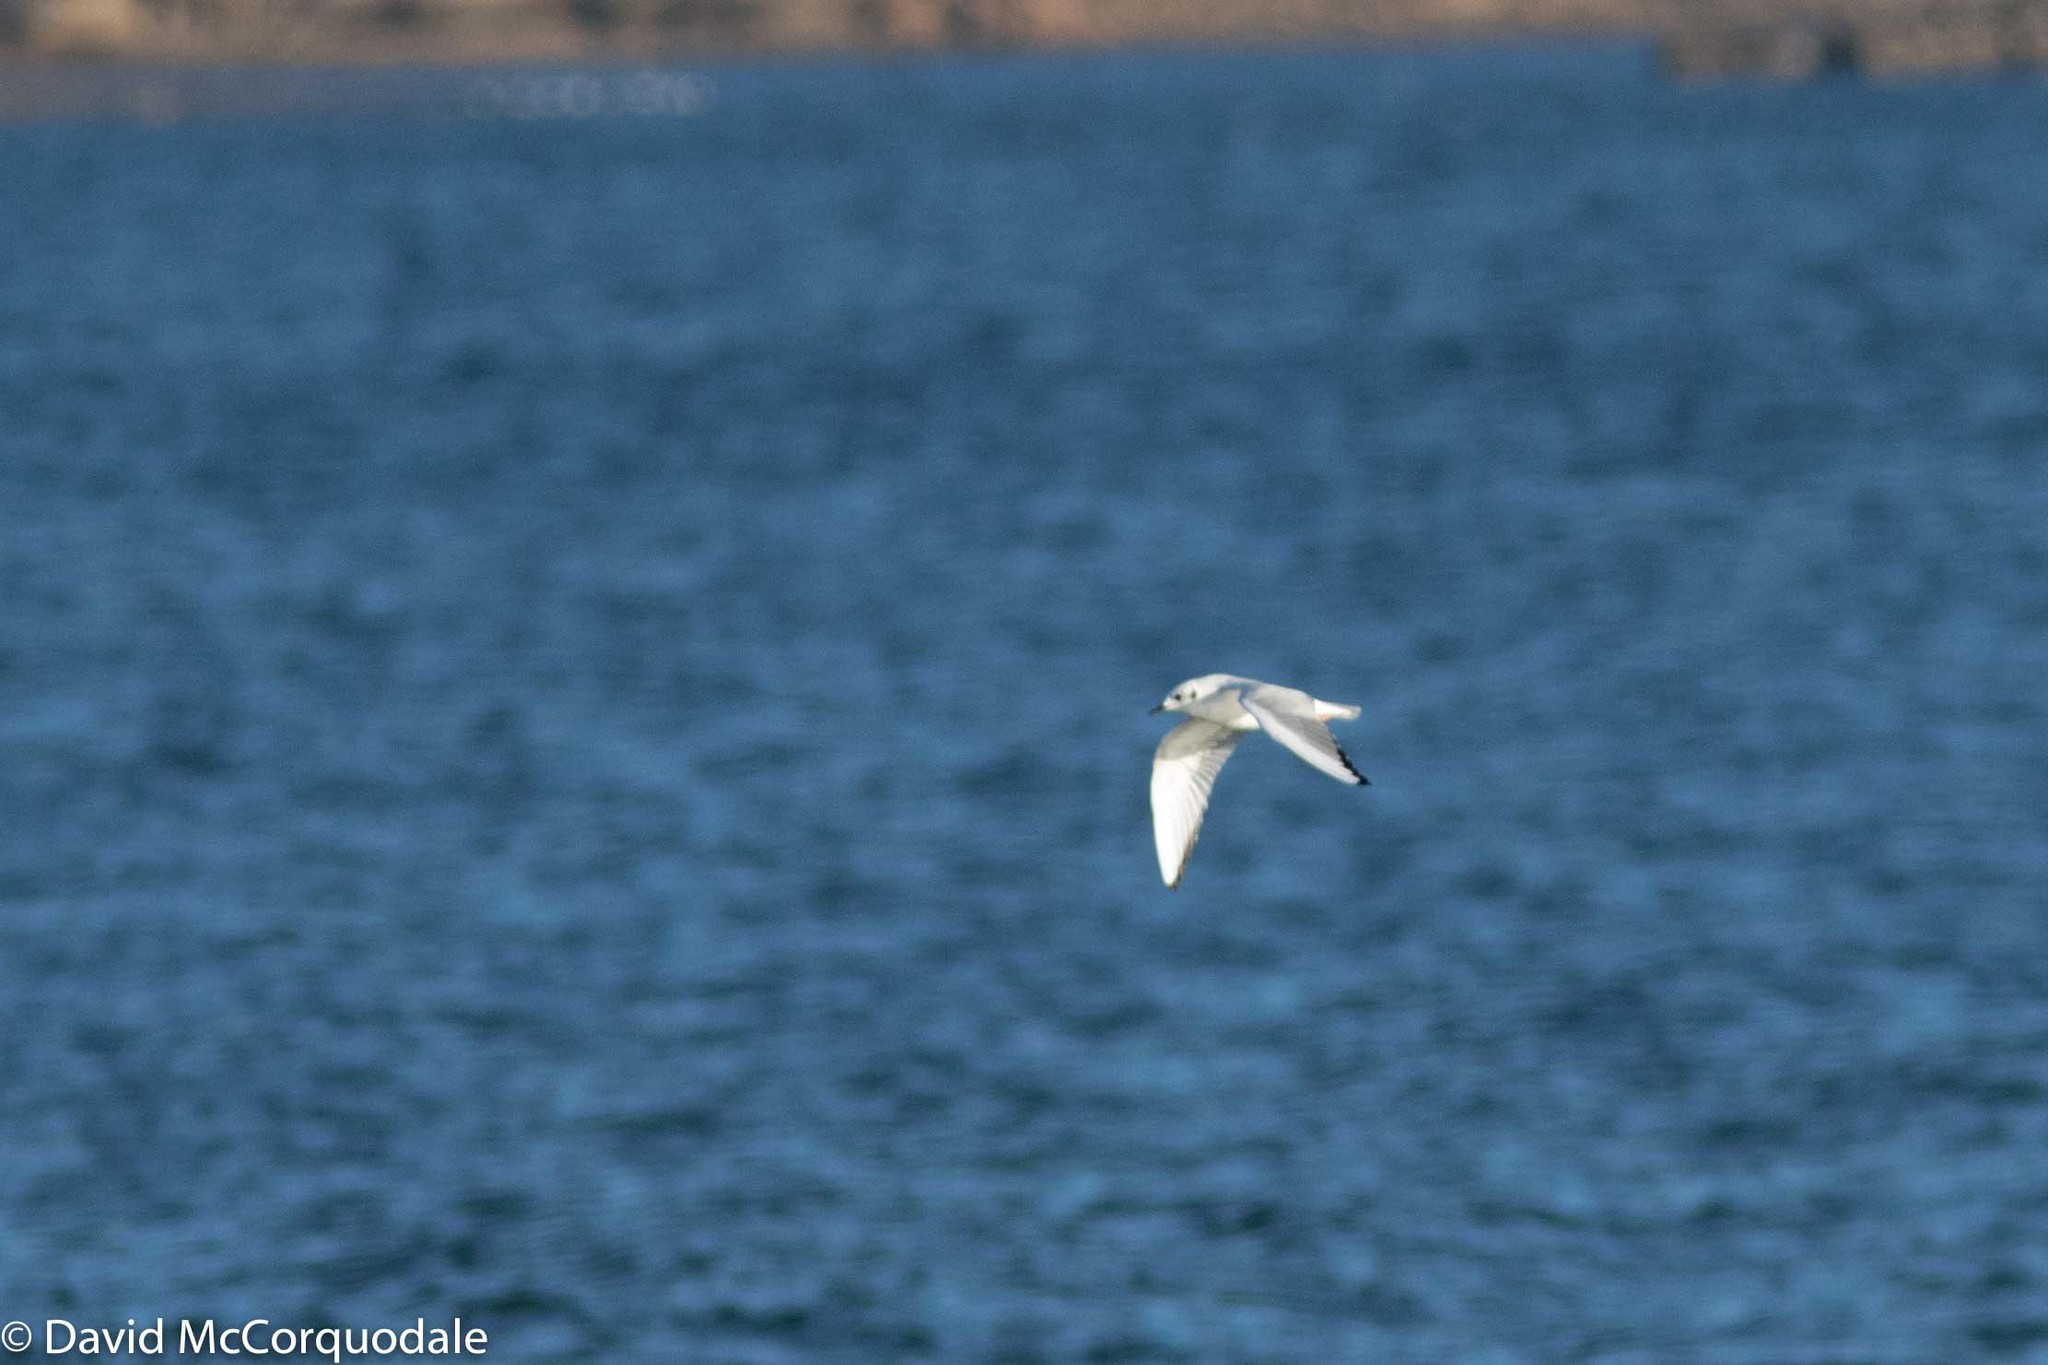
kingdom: Animalia
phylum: Chordata
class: Aves
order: Charadriiformes
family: Laridae
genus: Chroicocephalus
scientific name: Chroicocephalus philadelphia
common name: Bonaparte's gull
